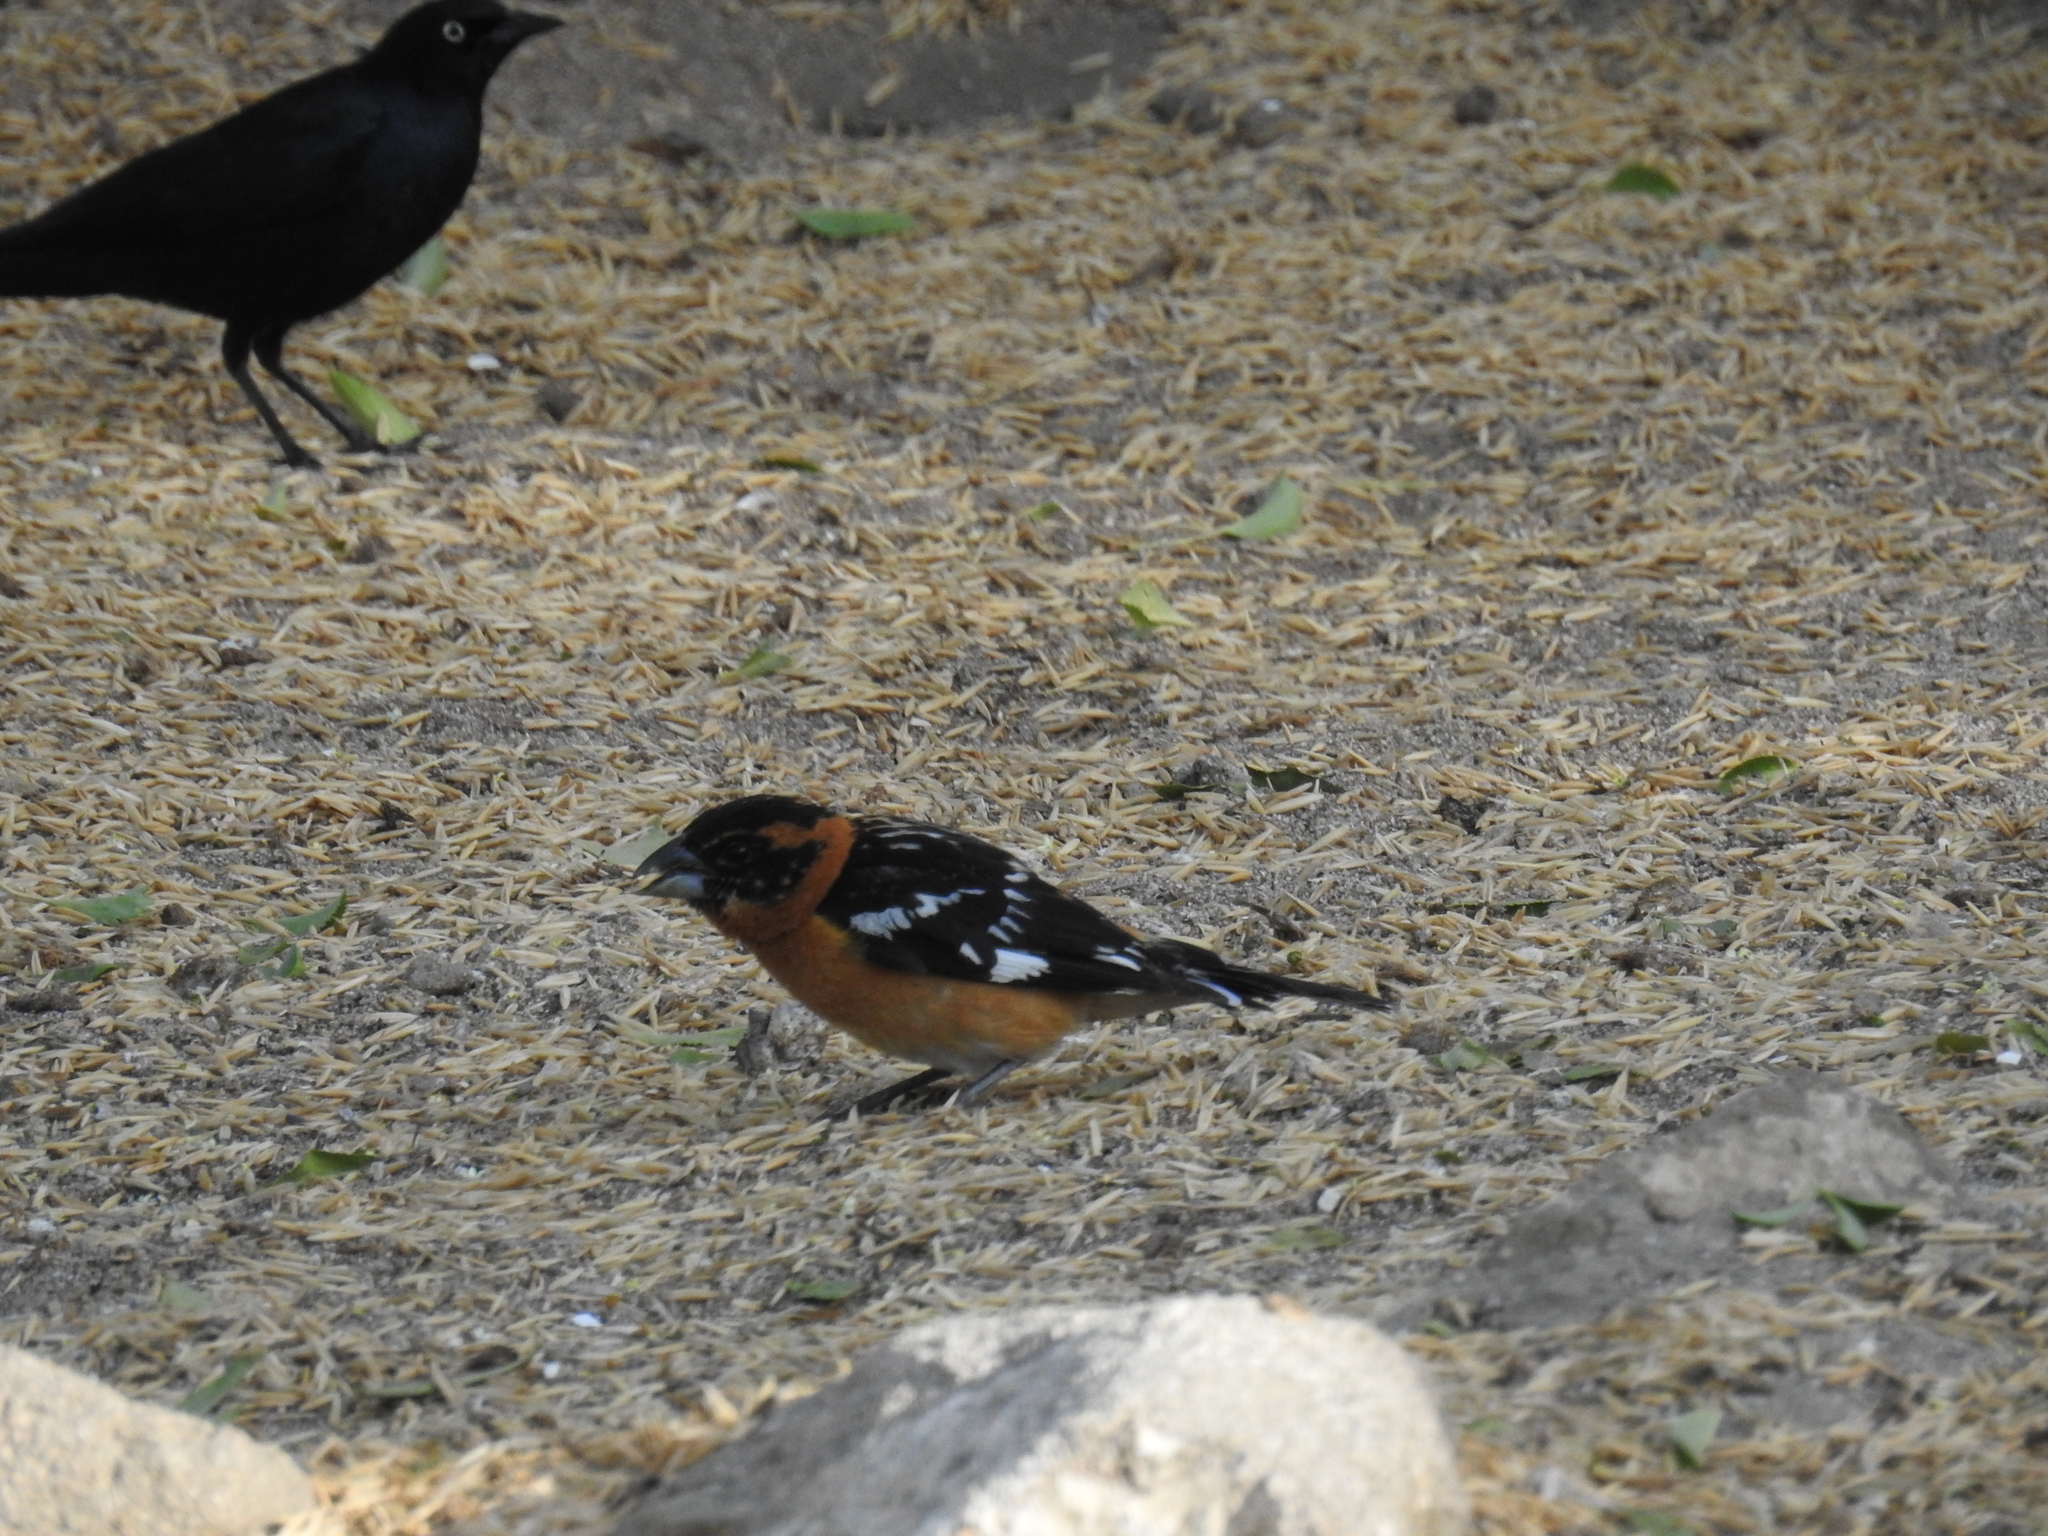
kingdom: Animalia
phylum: Chordata
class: Aves
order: Passeriformes
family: Cardinalidae
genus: Pheucticus
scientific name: Pheucticus melanocephalus
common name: Black-headed grosbeak
